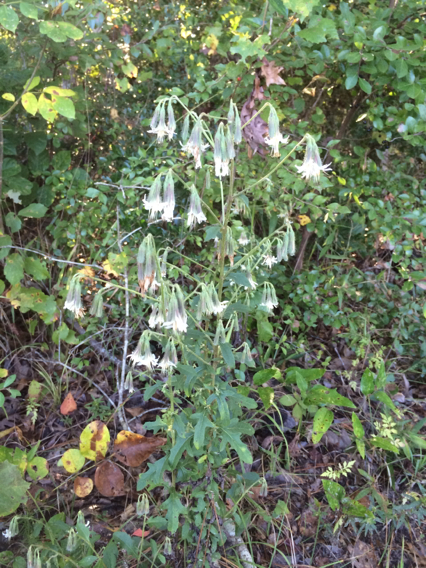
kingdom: Plantae
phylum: Tracheophyta
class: Magnoliopsida
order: Asterales
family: Asteraceae
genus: Nabalus
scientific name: Nabalus barbata
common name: Barbed rattlesnakeroot
